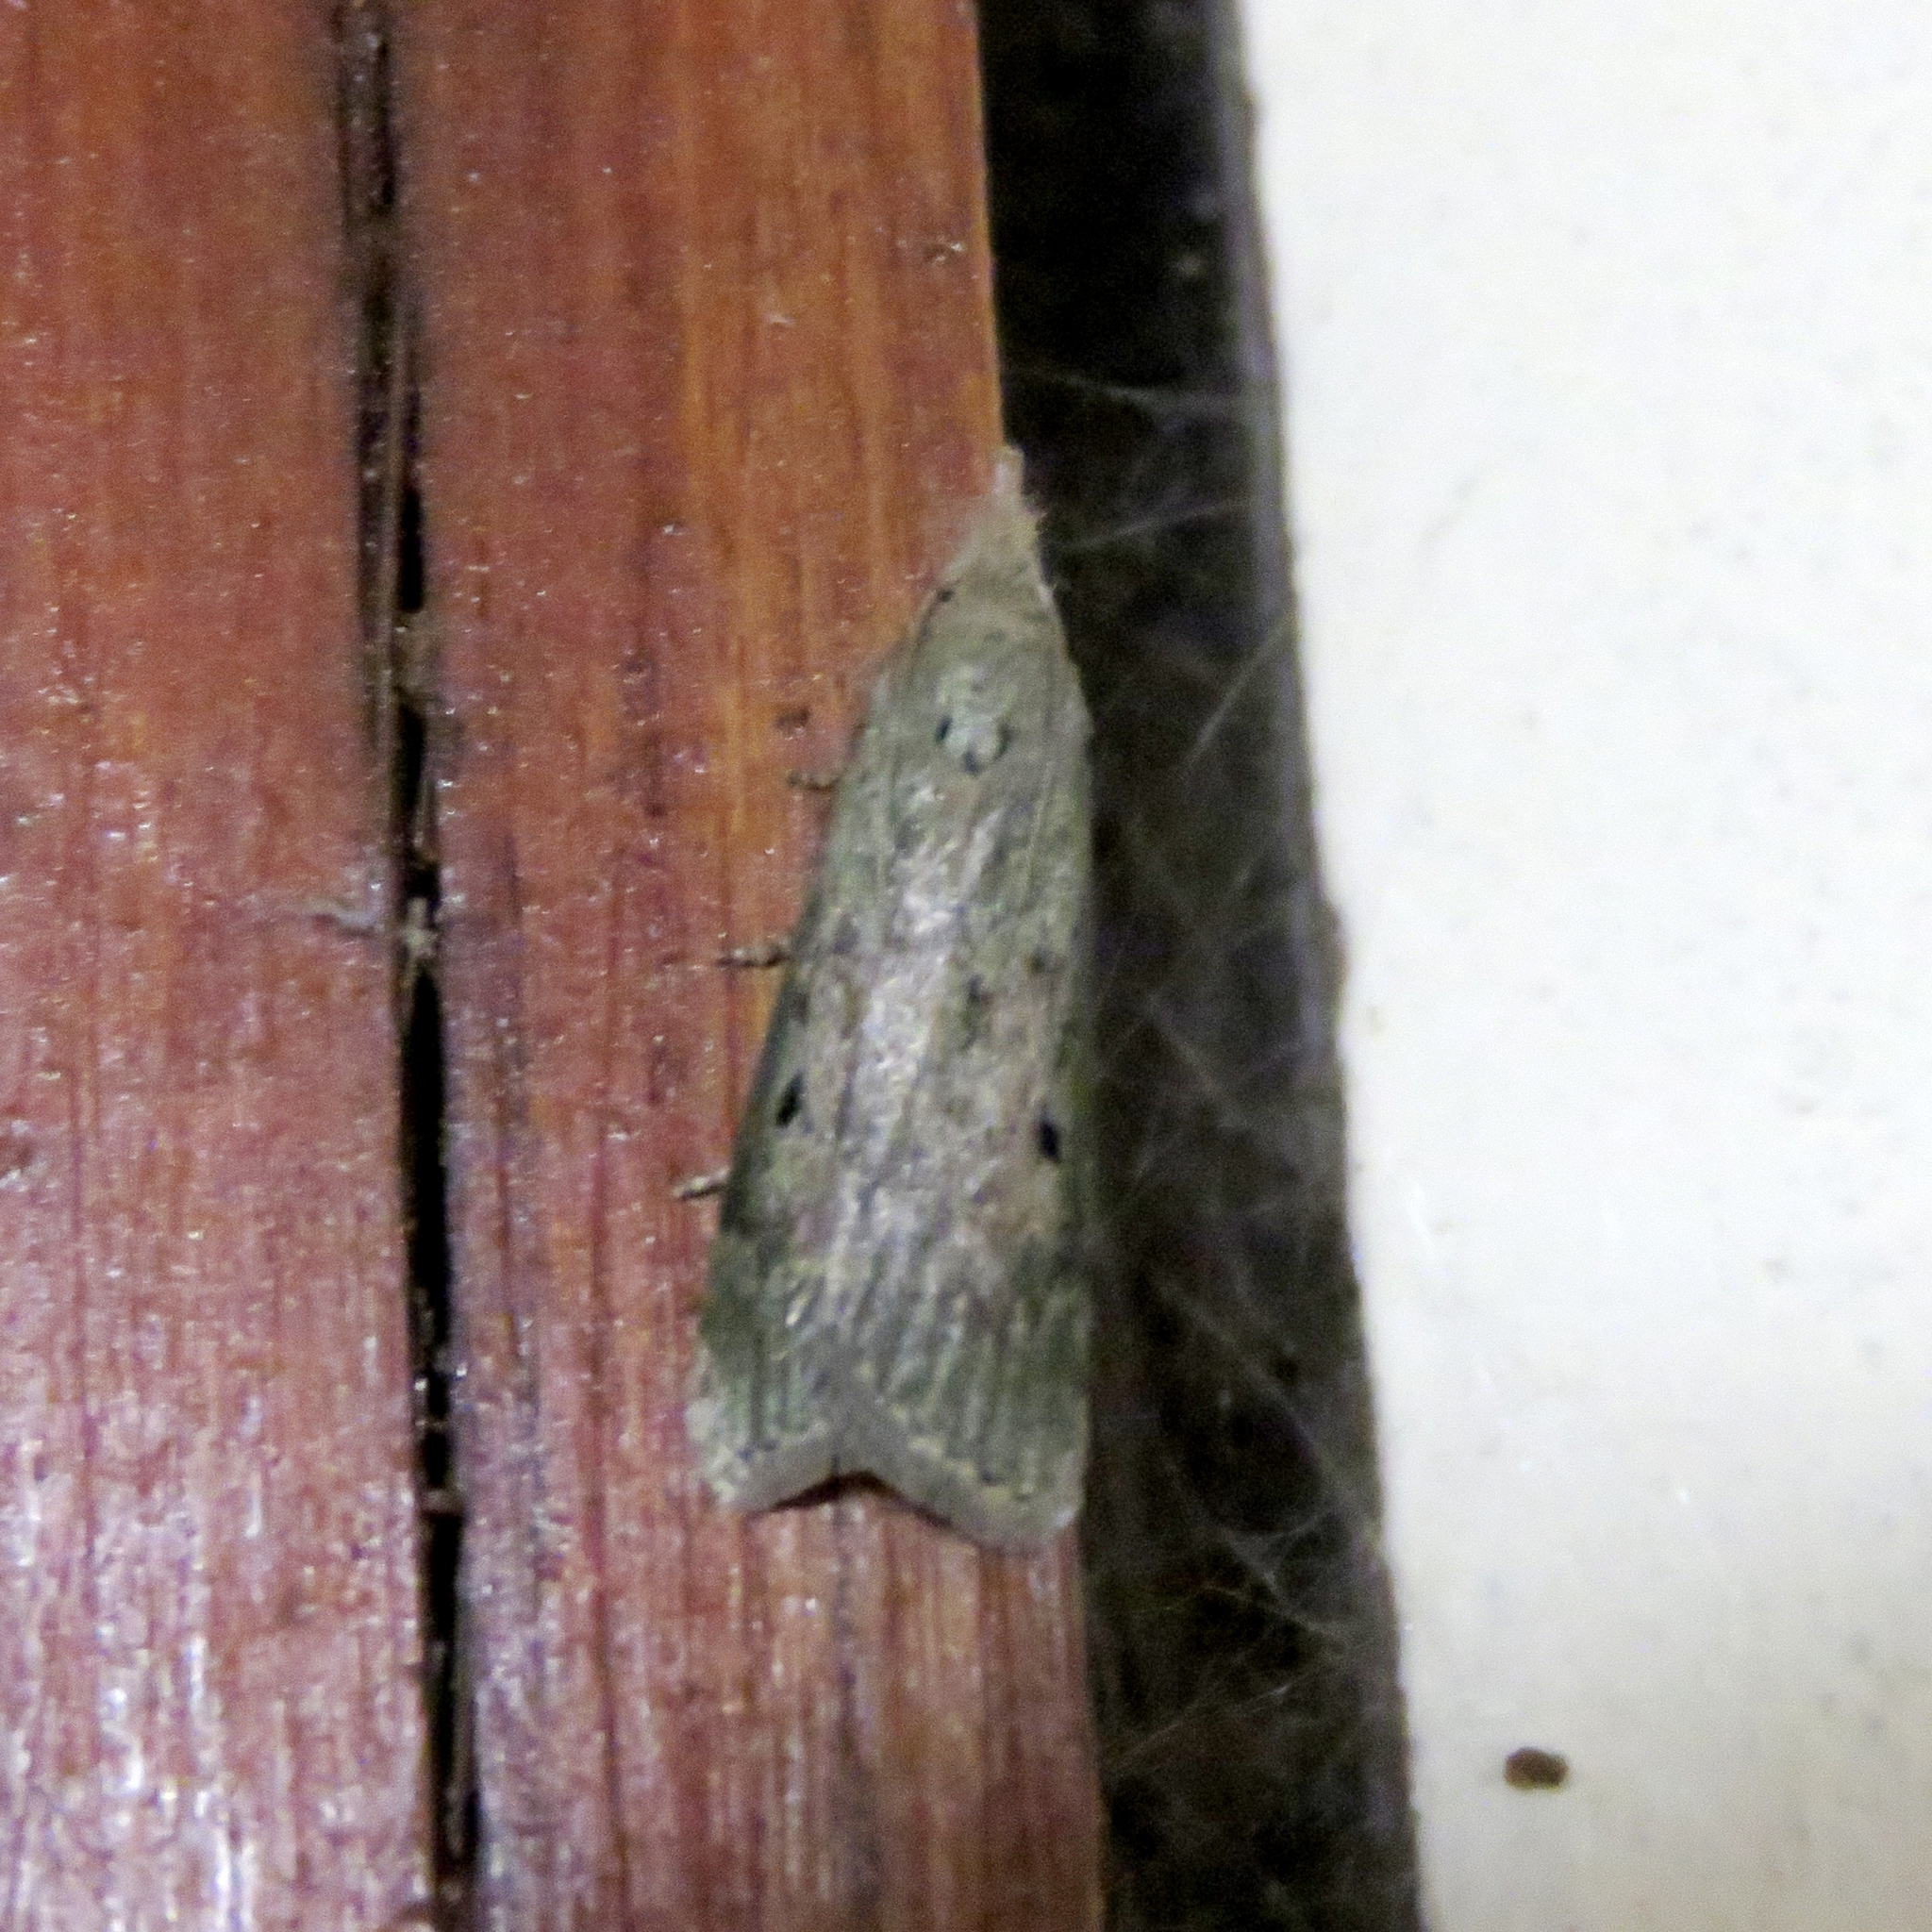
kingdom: Animalia
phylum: Arthropoda
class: Insecta
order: Lepidoptera
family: Pyralidae
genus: Aphomia
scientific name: Aphomia sociella
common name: Bee moth
